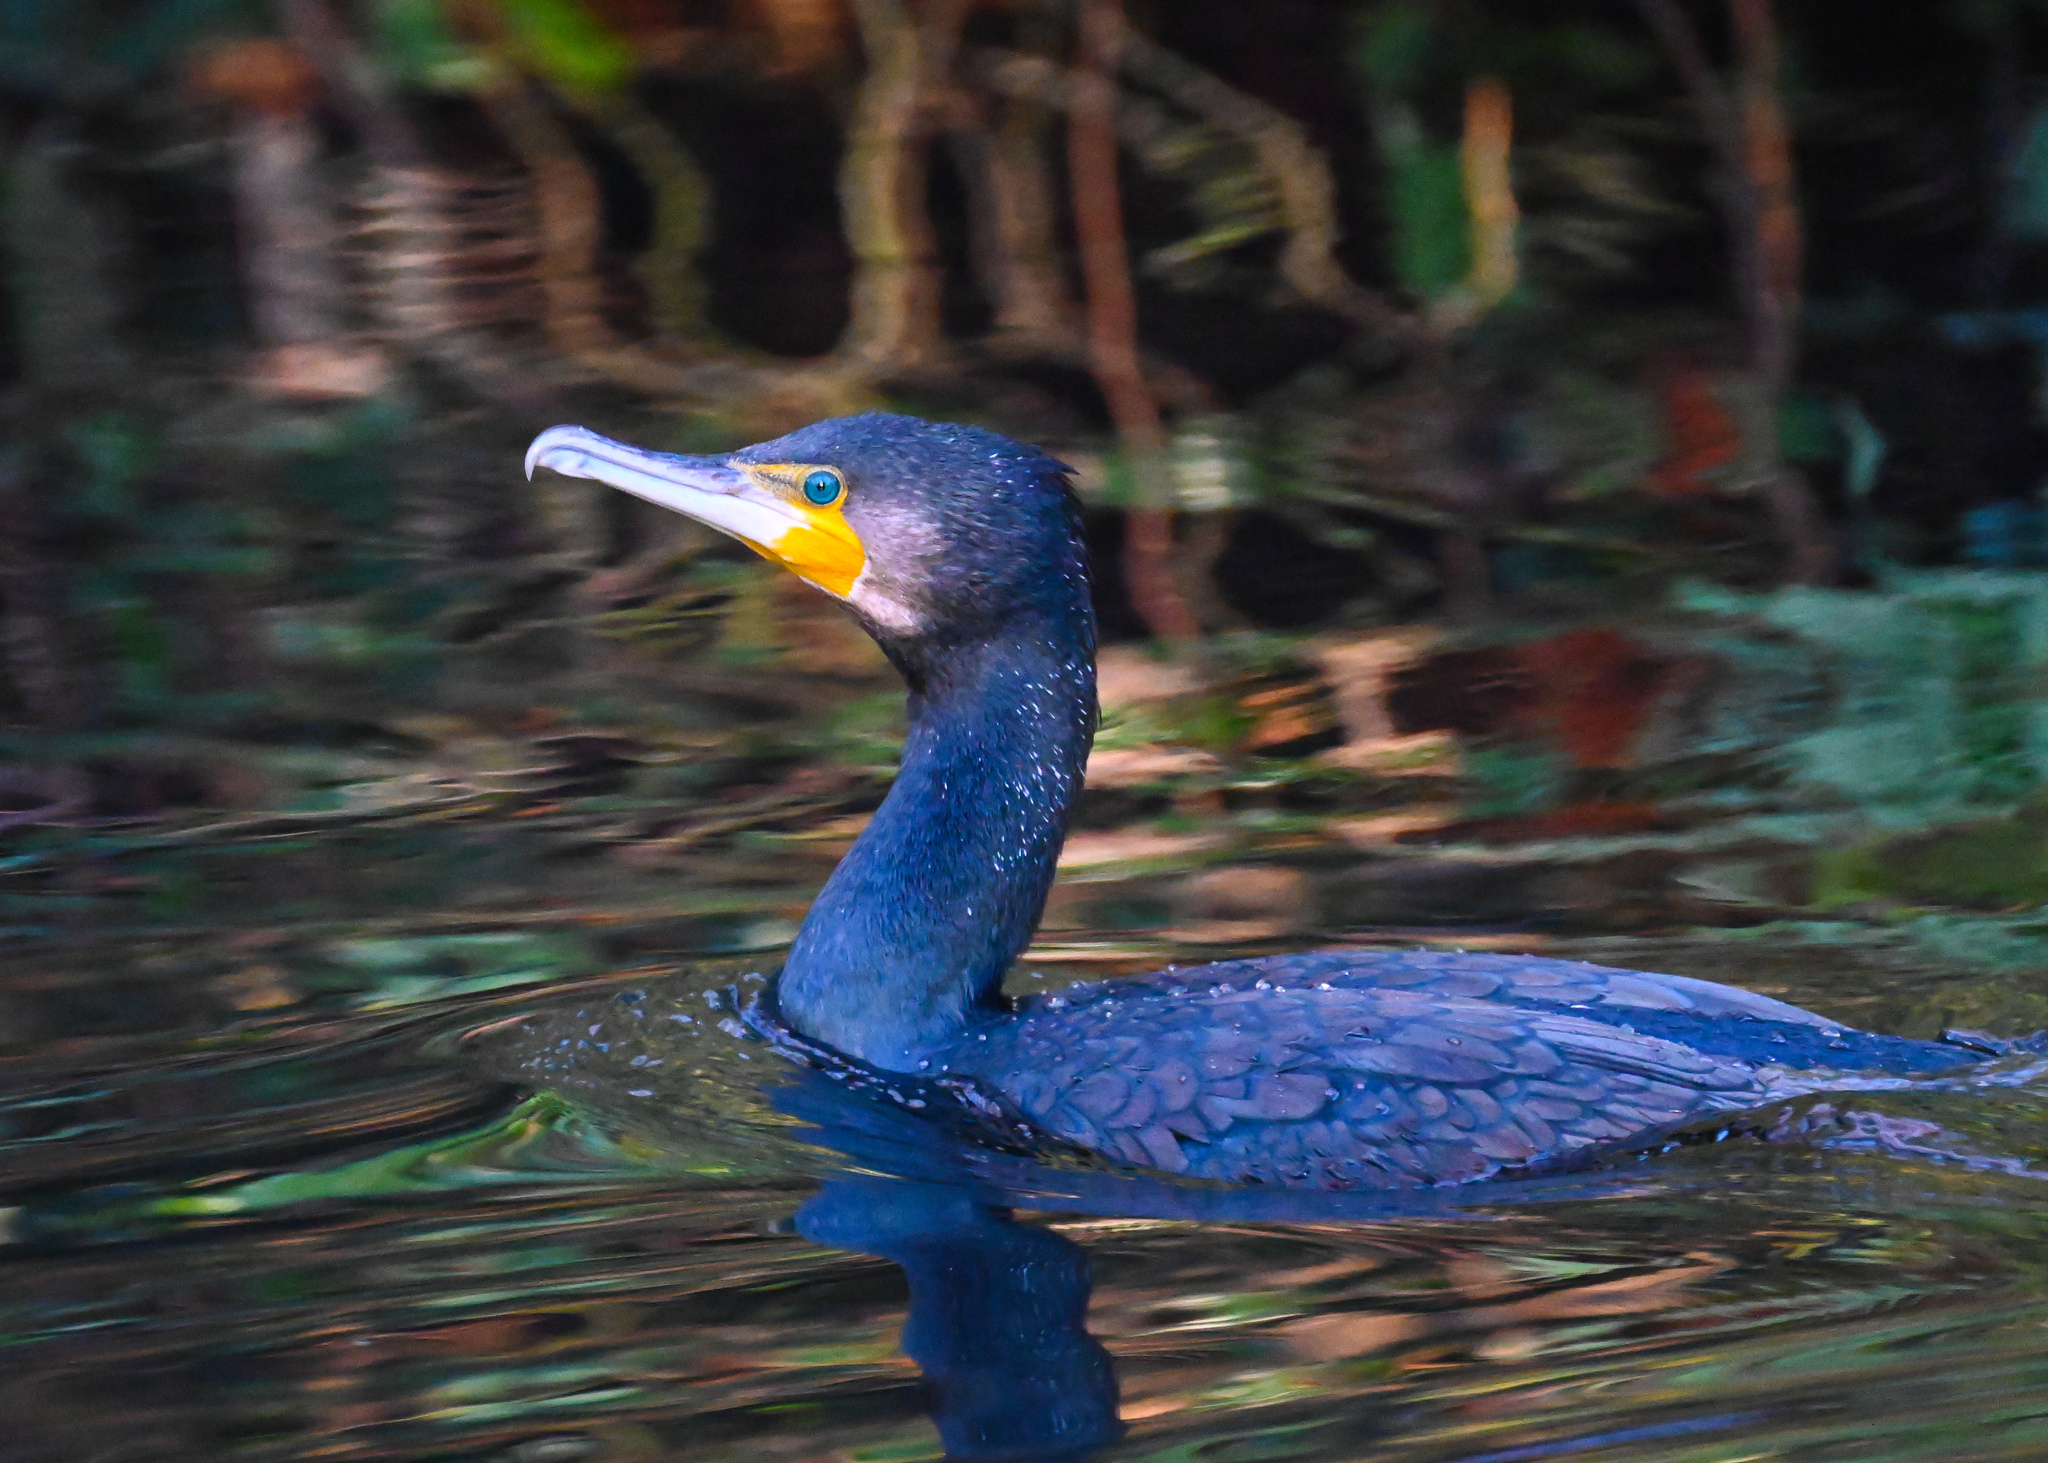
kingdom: Animalia
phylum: Chordata
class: Aves
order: Suliformes
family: Phalacrocoracidae
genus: Phalacrocorax
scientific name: Phalacrocorax carbo
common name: Great cormorant
